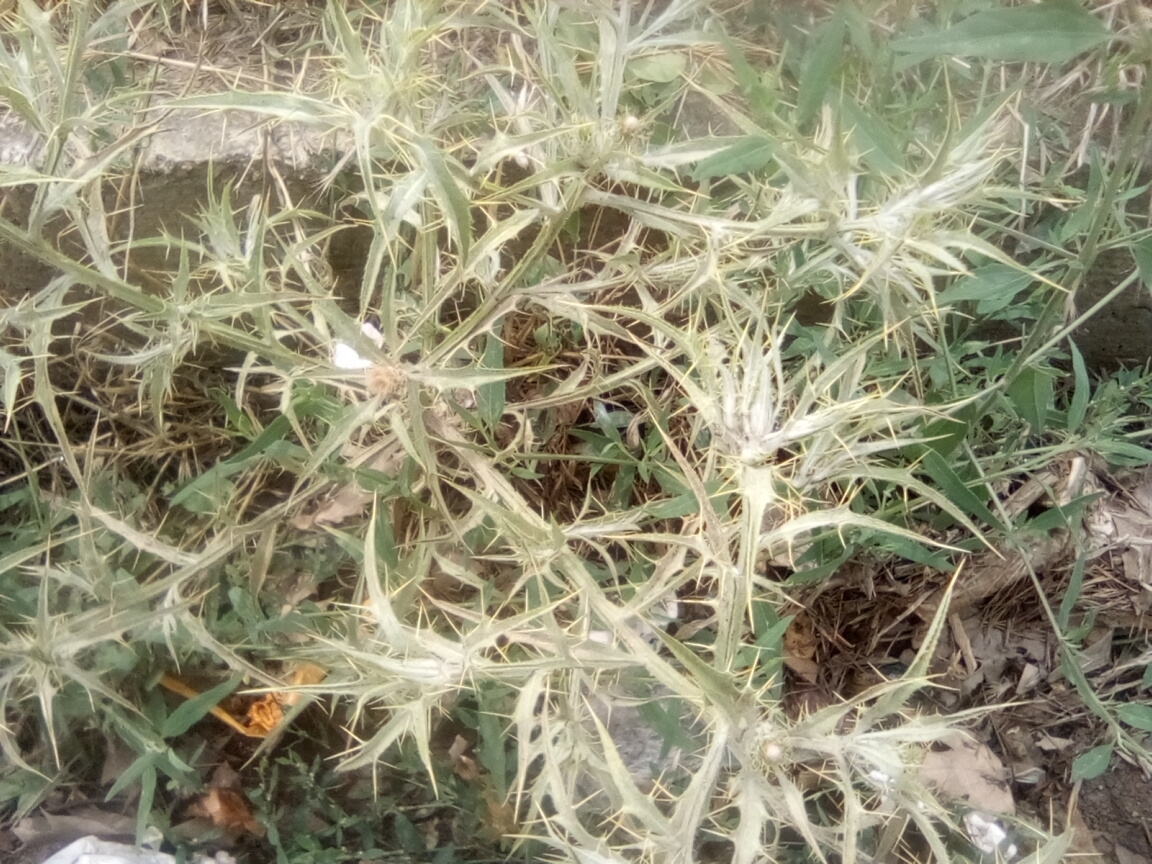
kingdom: Plantae
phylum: Tracheophyta
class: Magnoliopsida
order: Asterales
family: Asteraceae
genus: Picnomon
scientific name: Picnomon acarna
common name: Soldier thistle
